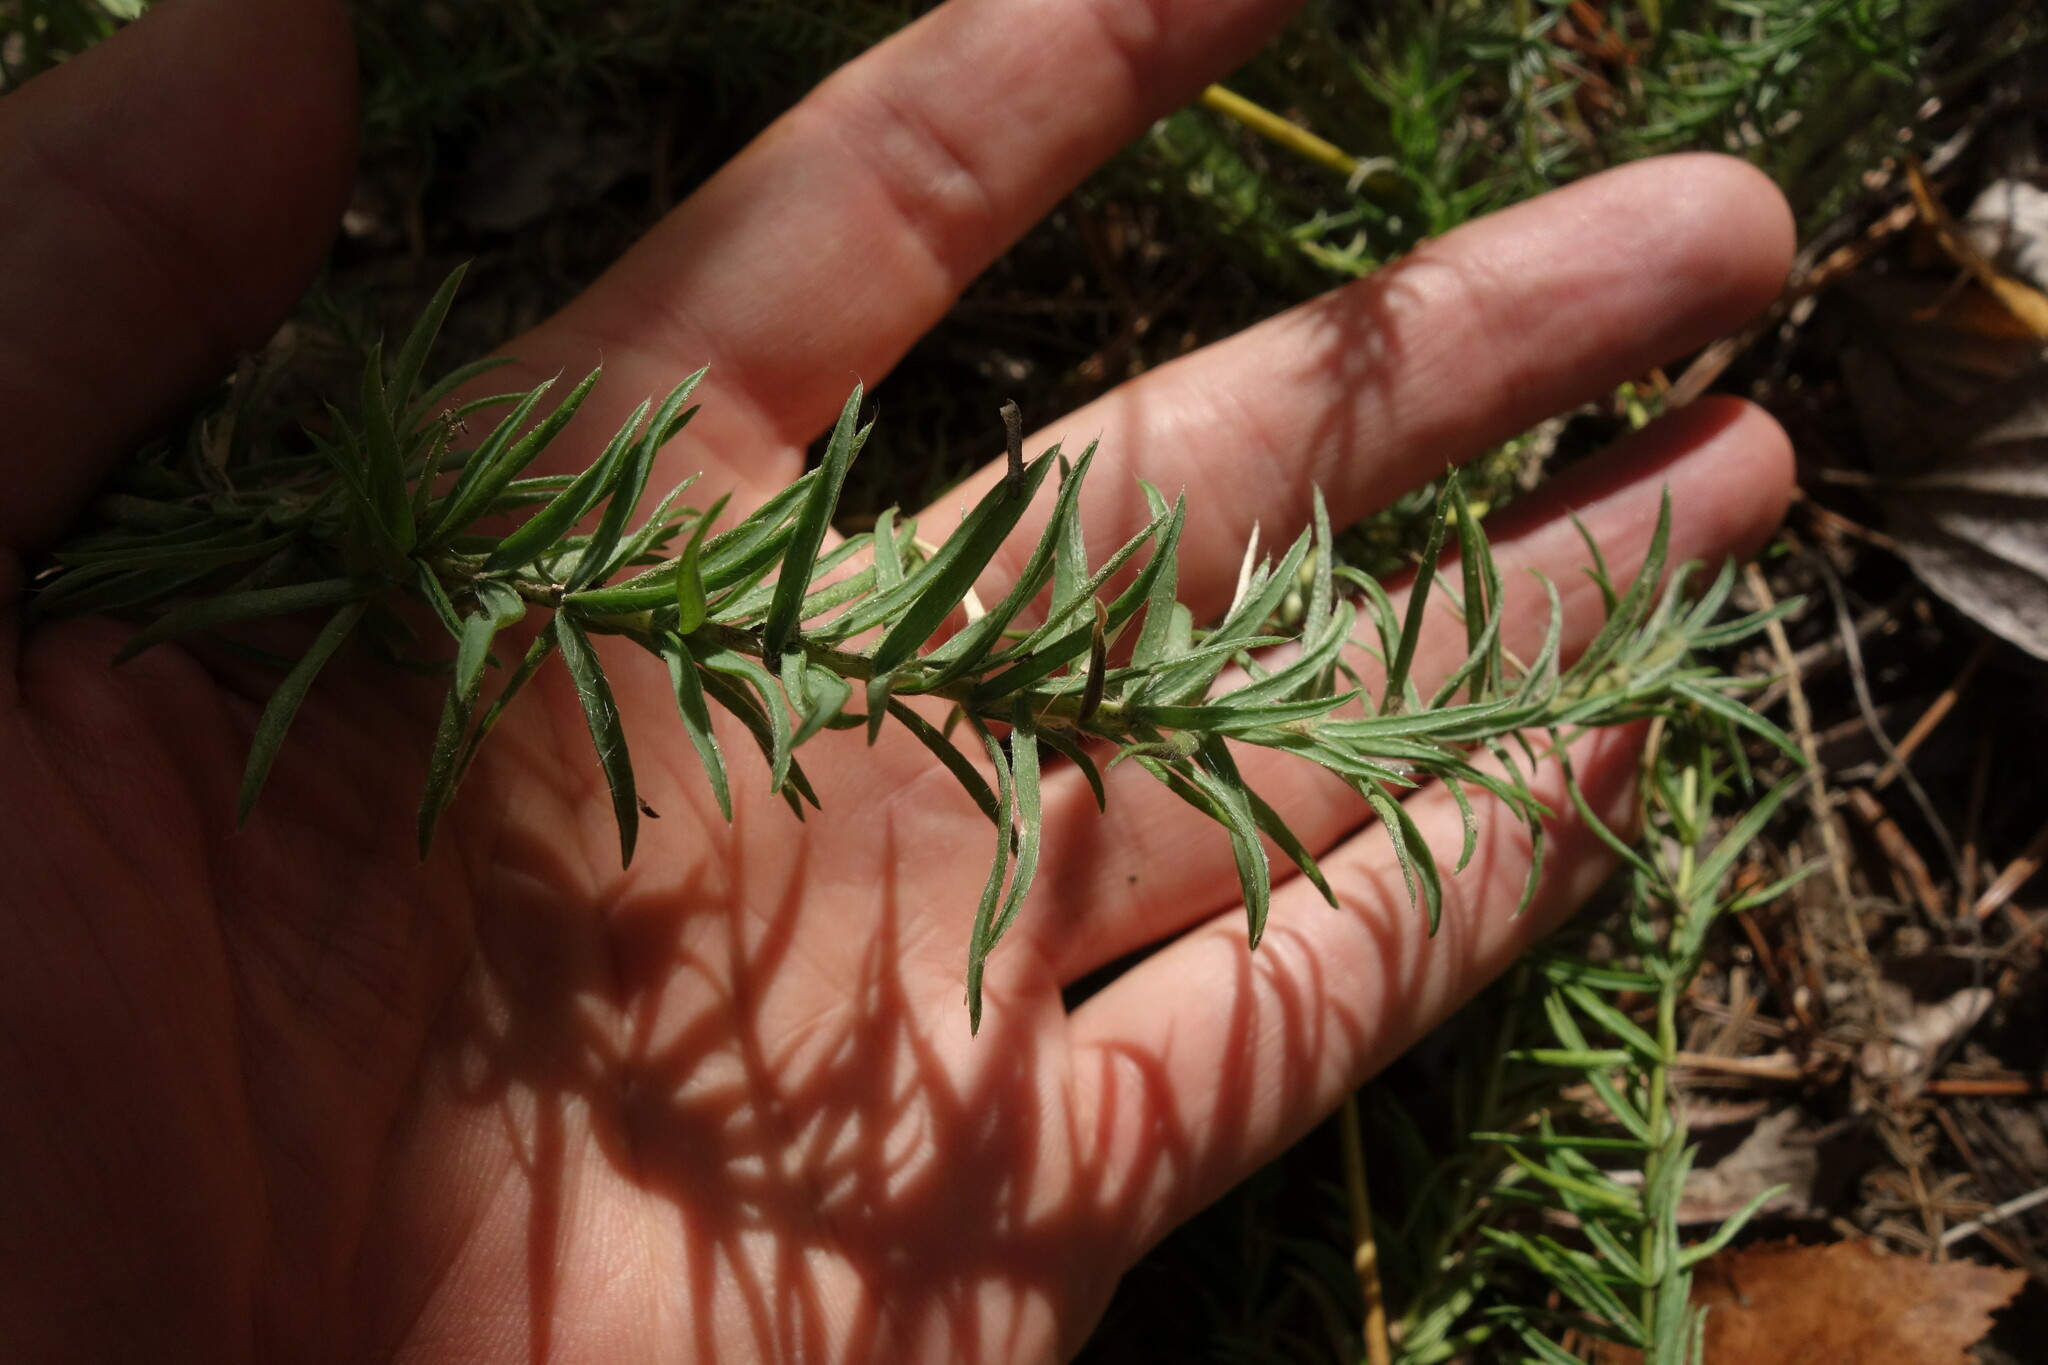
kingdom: Plantae
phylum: Tracheophyta
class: Magnoliopsida
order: Fabales
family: Fabaceae
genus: Oxytropis
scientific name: Oxytropis myriophylla
